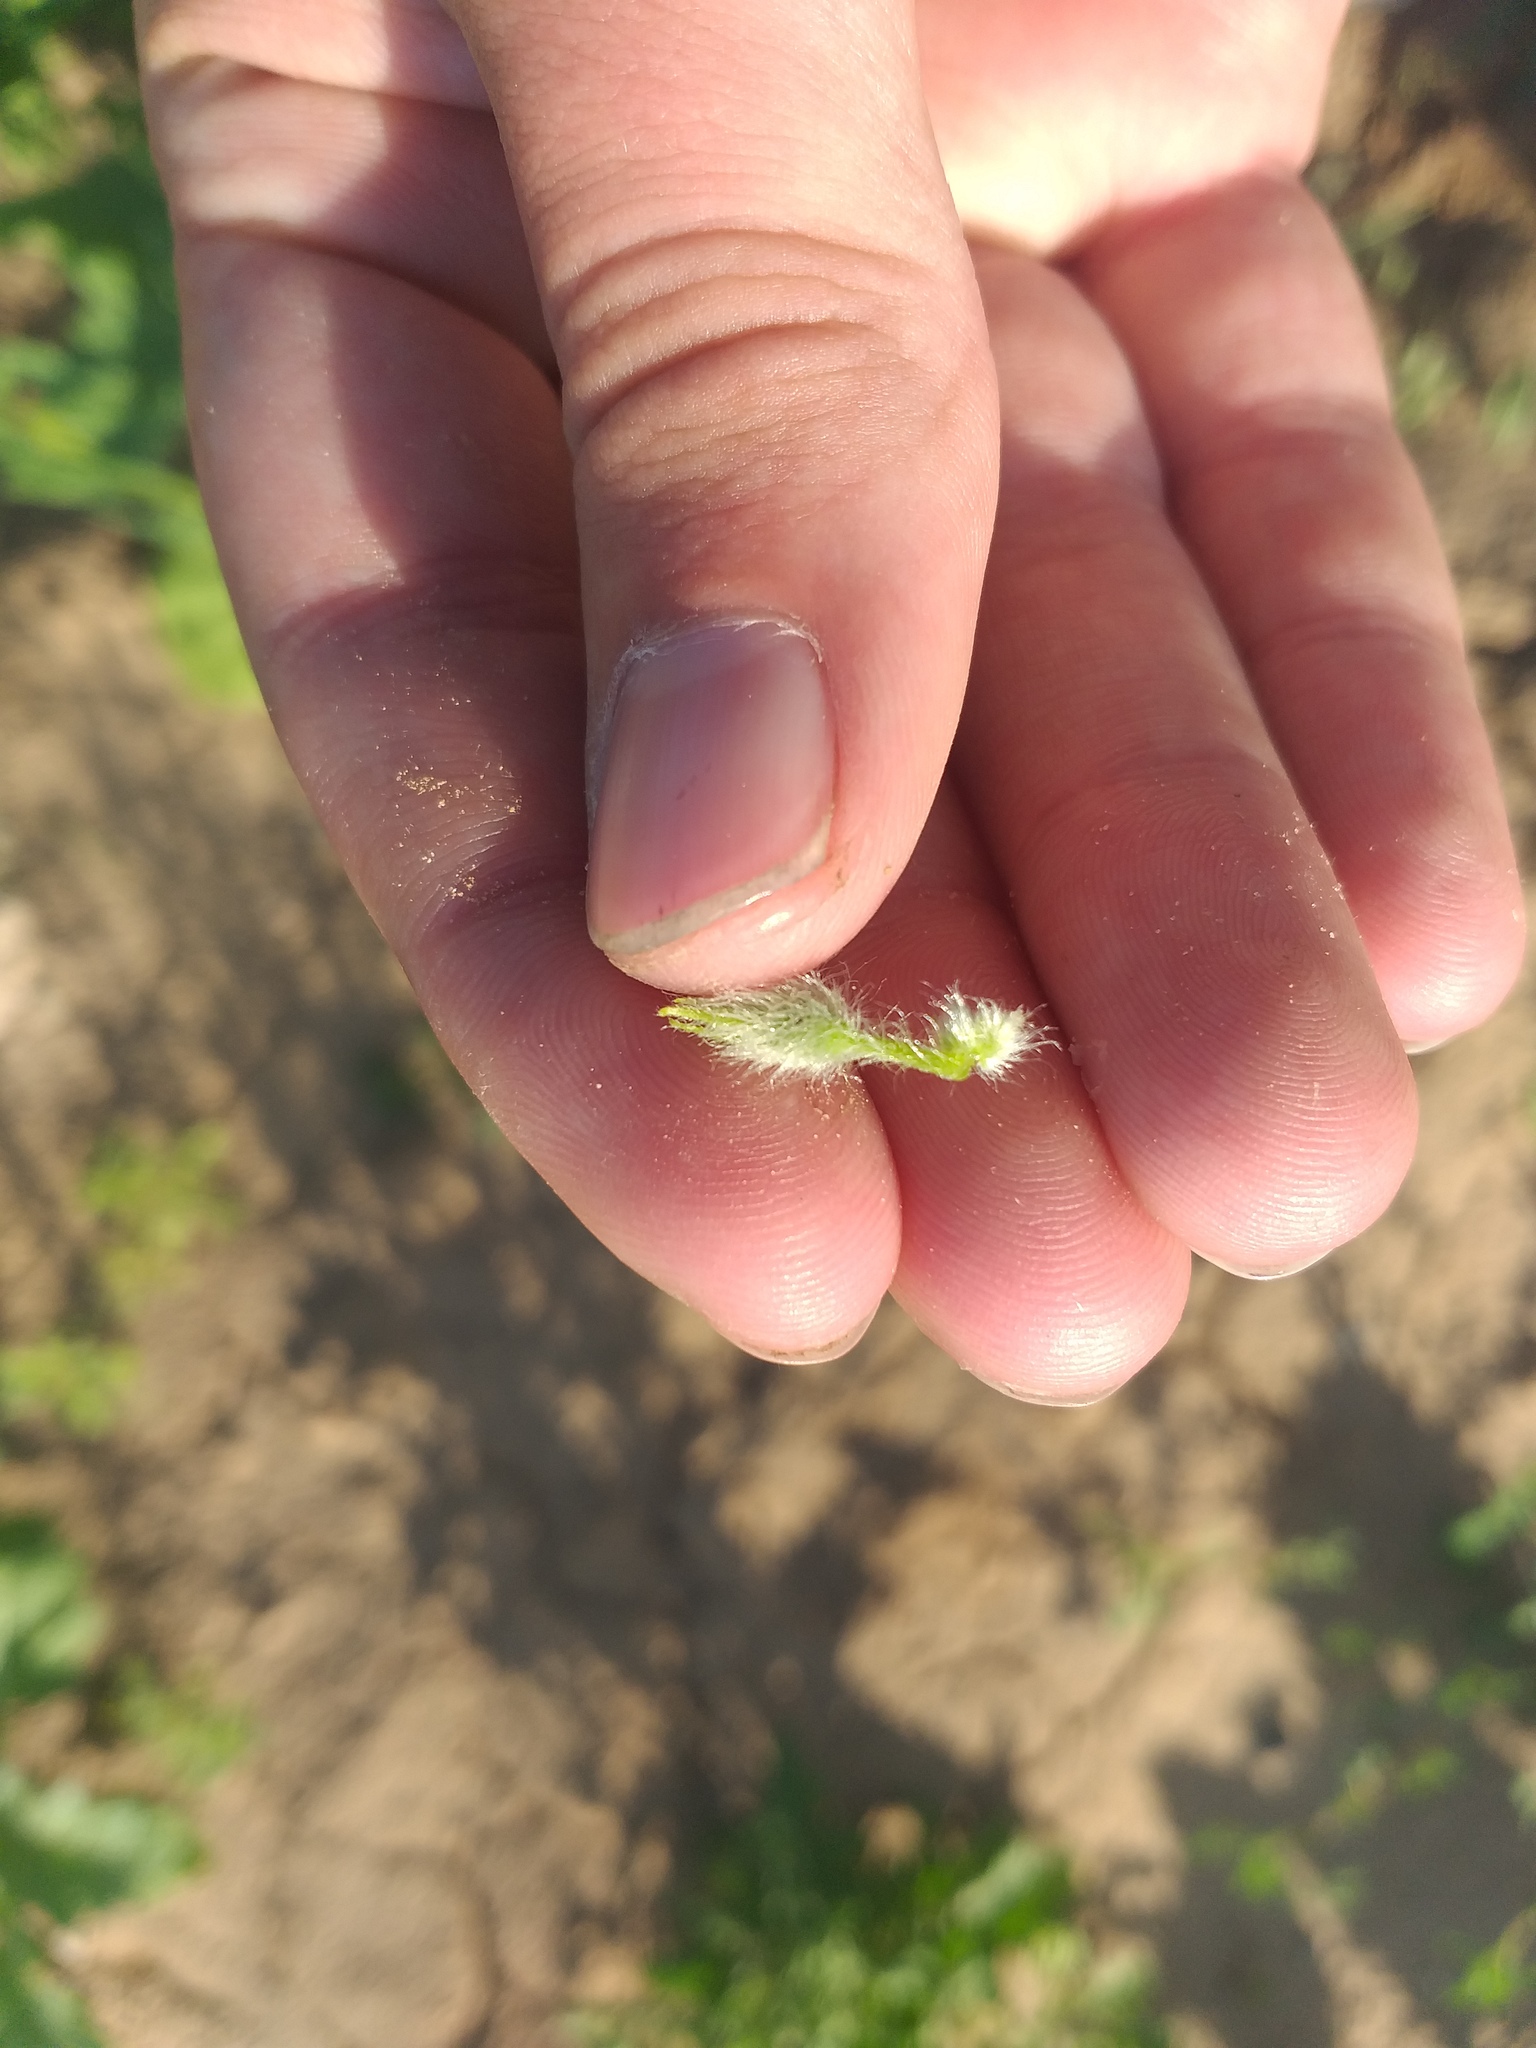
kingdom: Plantae
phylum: Tracheophyta
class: Magnoliopsida
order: Cucurbitales
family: Cucurbitaceae
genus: Cucumis
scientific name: Cucumis melo
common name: Melon
